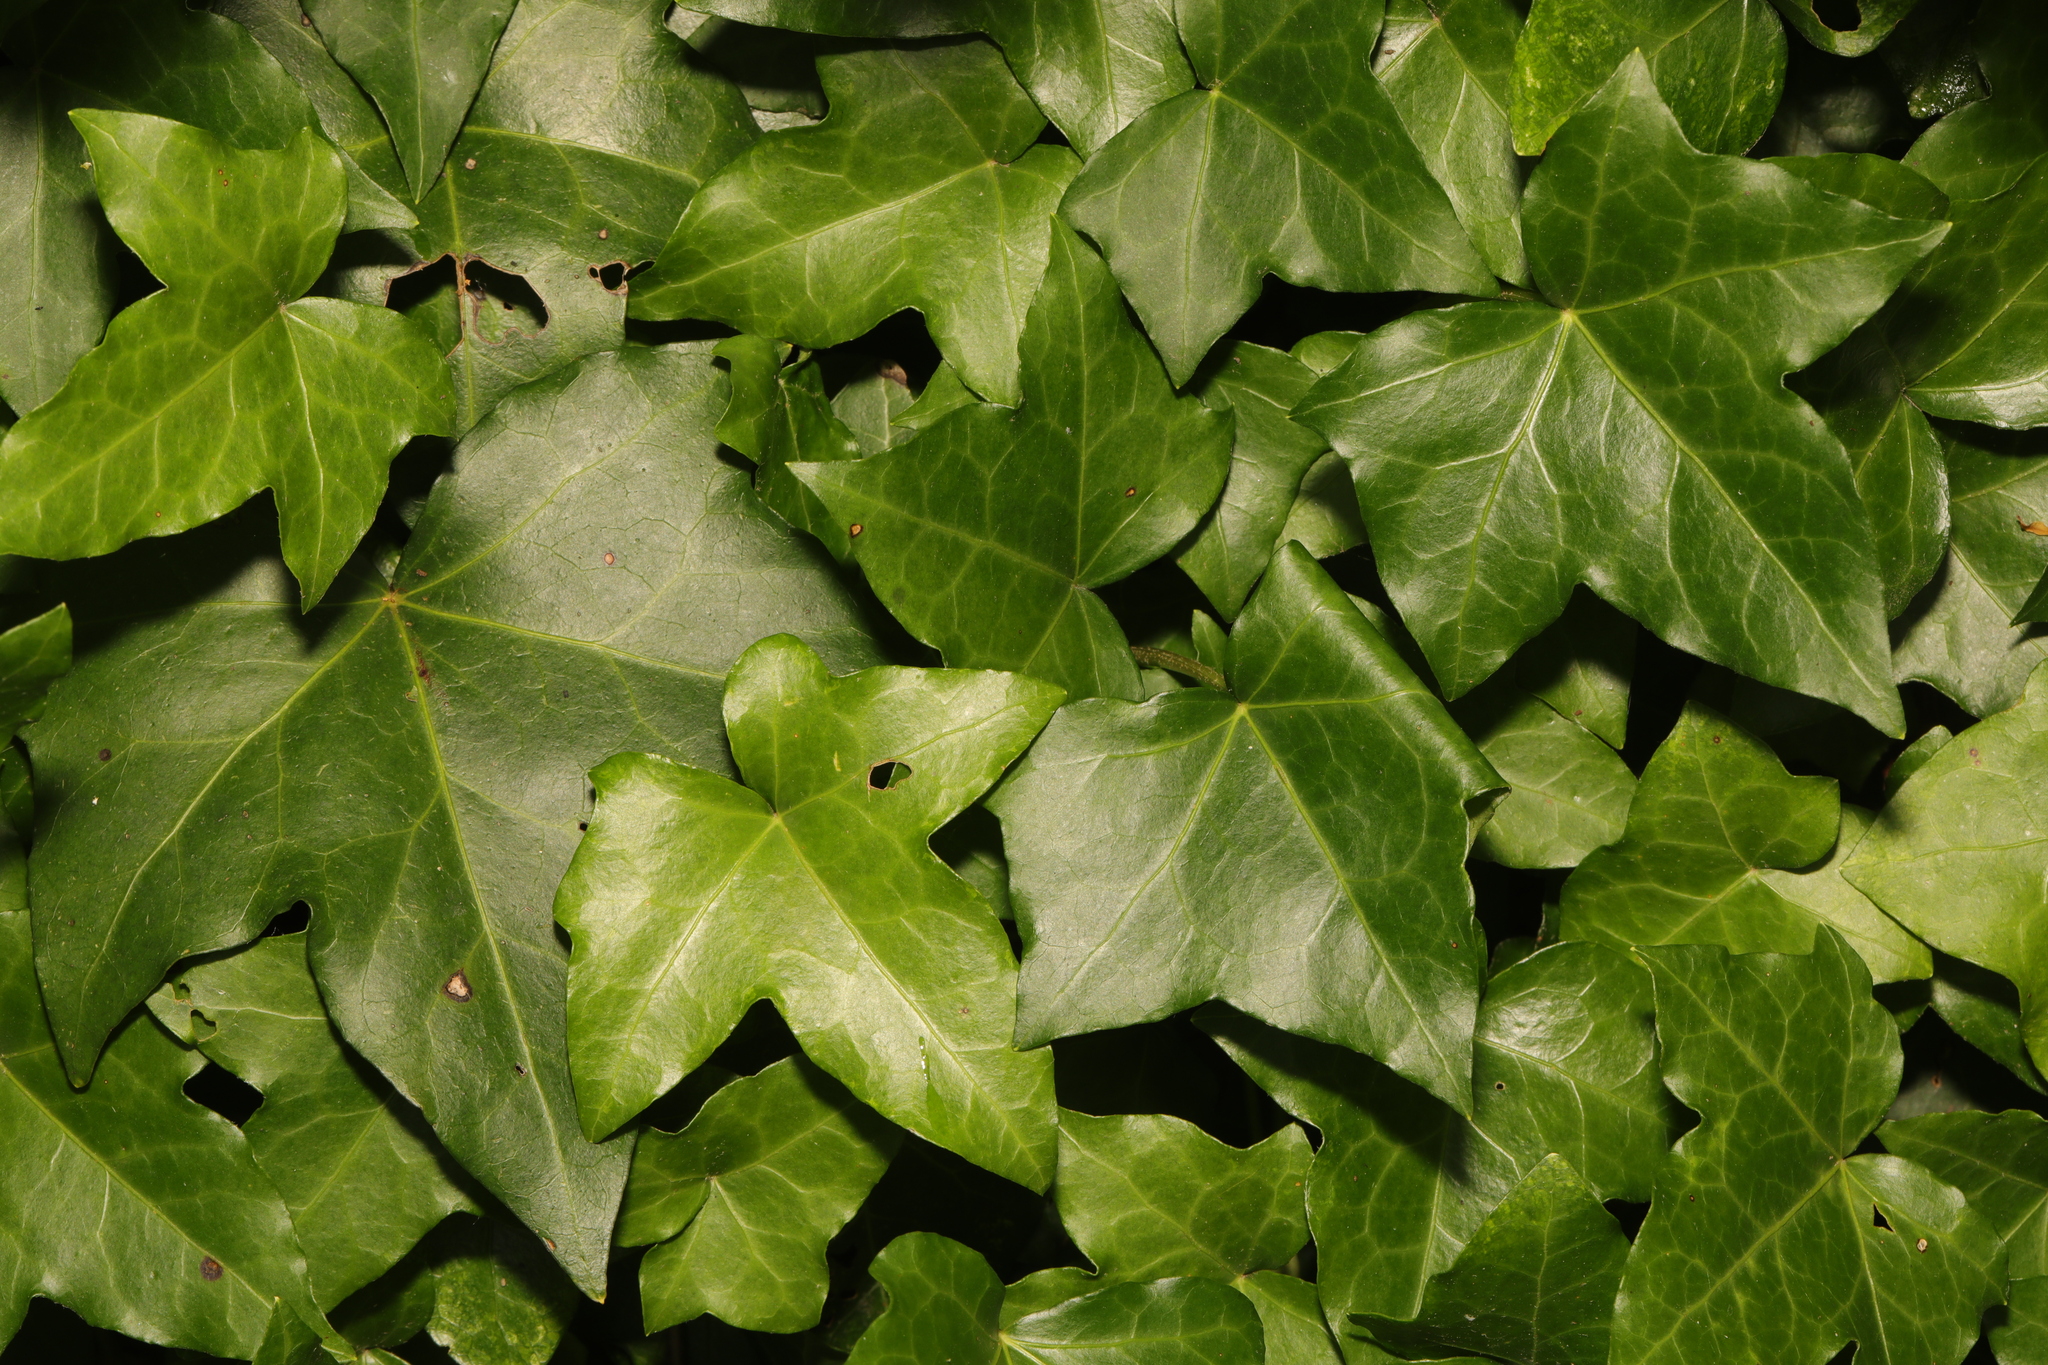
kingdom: Plantae
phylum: Tracheophyta
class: Magnoliopsida
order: Apiales
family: Araliaceae
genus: Hedera
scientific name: Hedera helix
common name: Ivy
